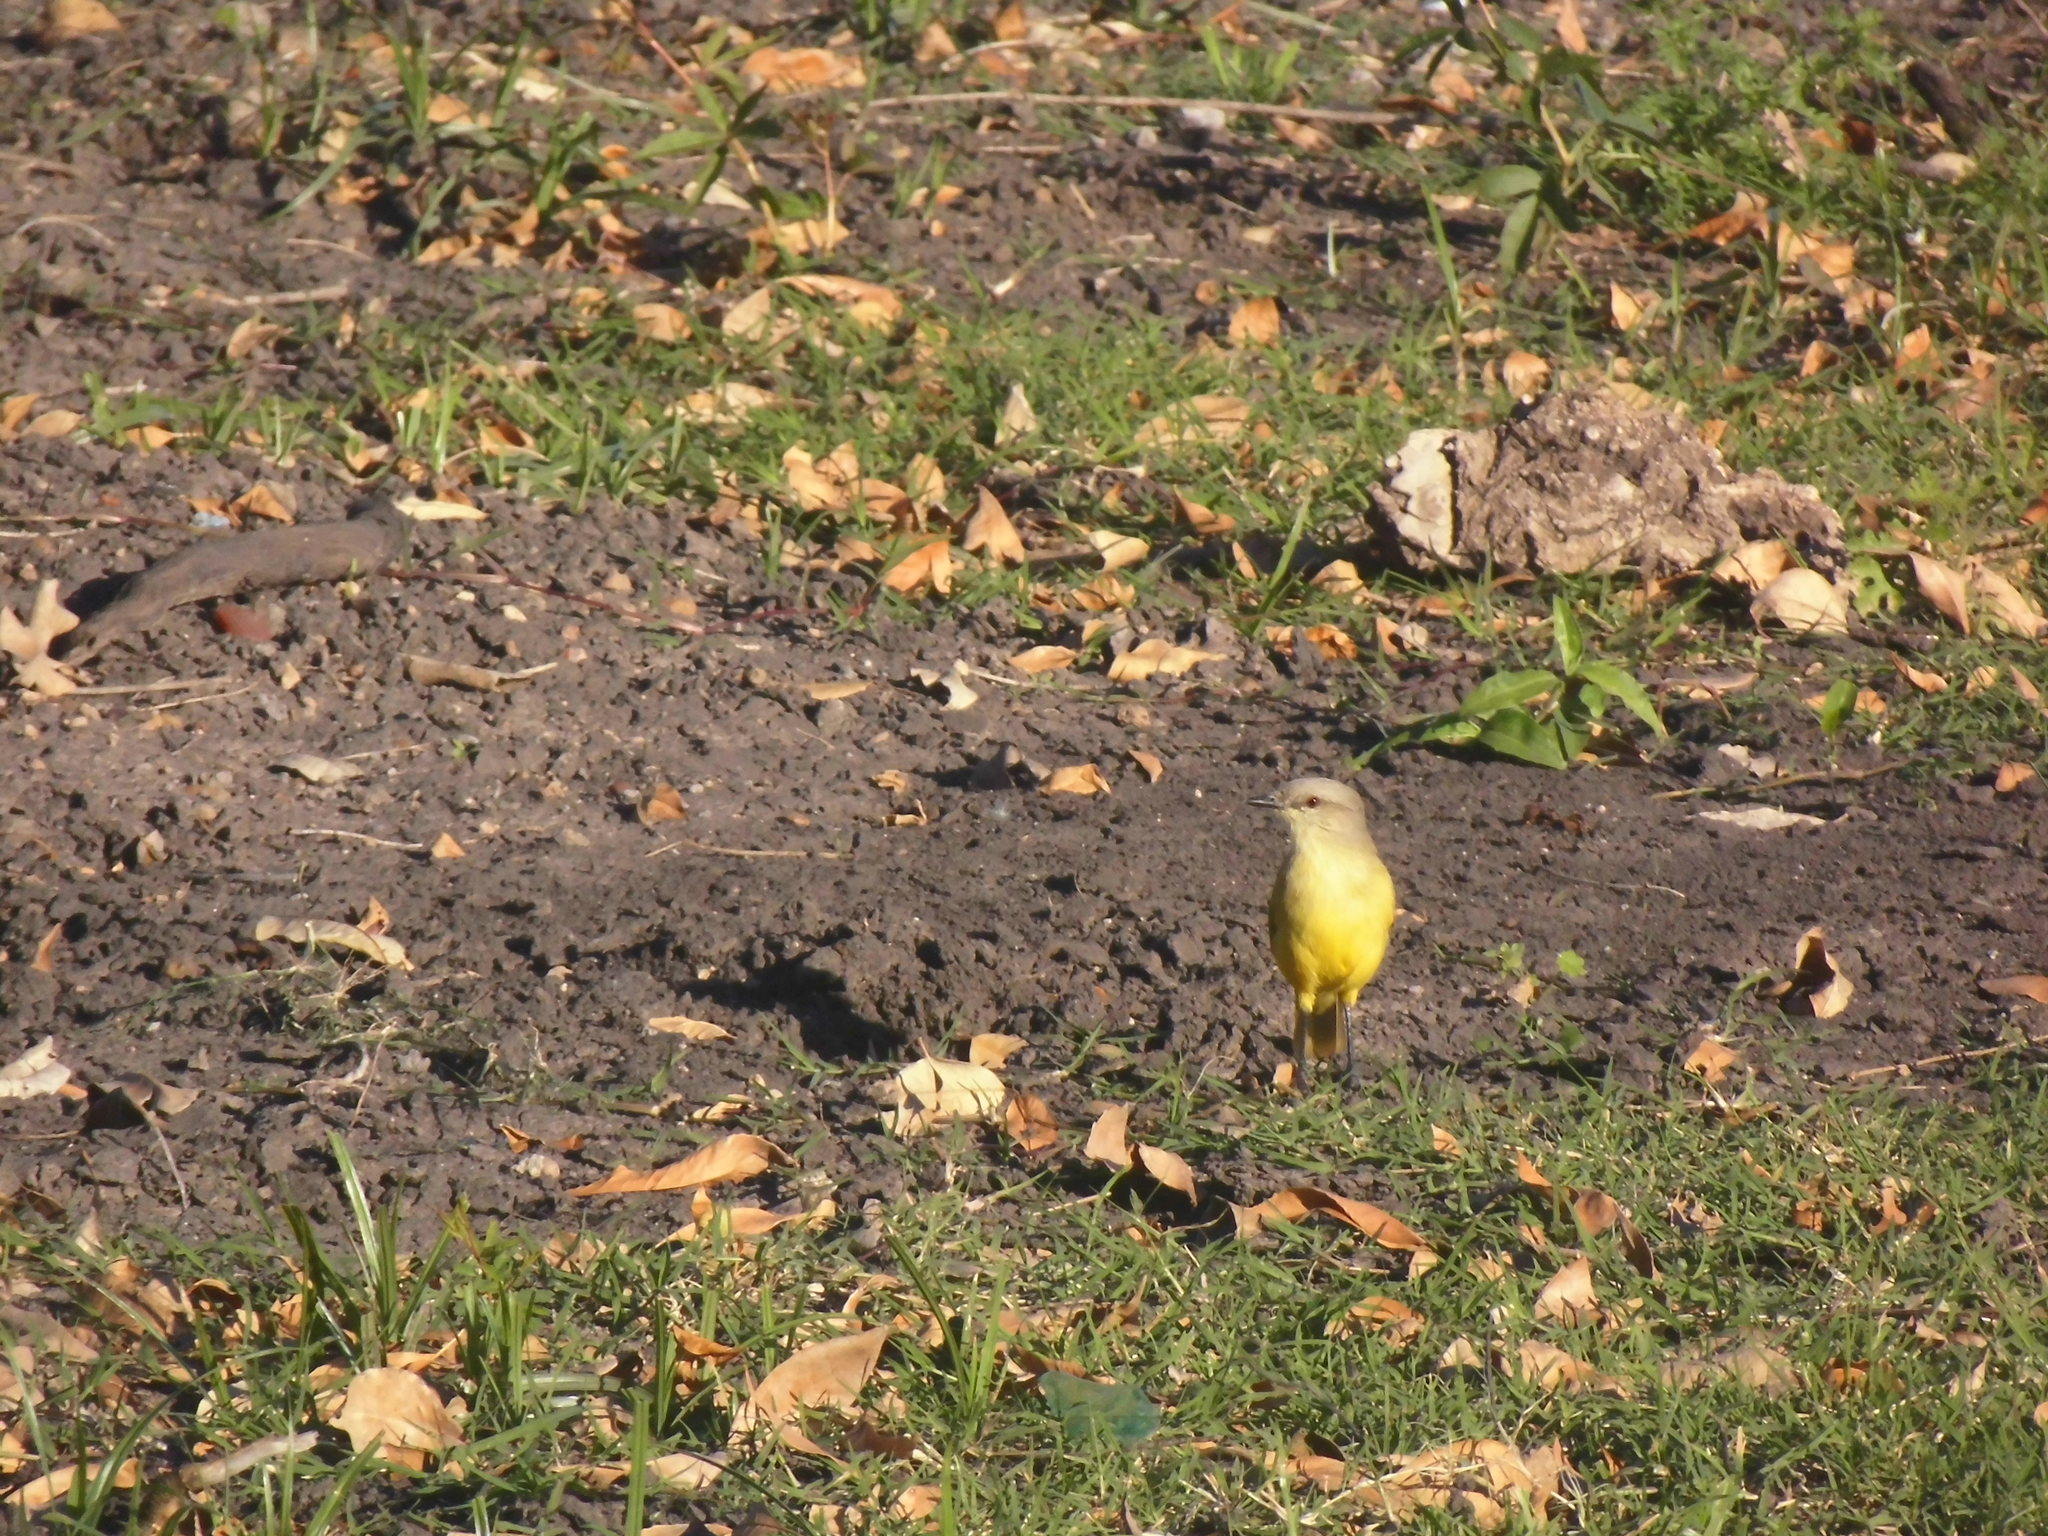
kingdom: Animalia
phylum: Chordata
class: Aves
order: Passeriformes
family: Tyrannidae
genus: Machetornis
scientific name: Machetornis rixosa
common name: Cattle tyrant
